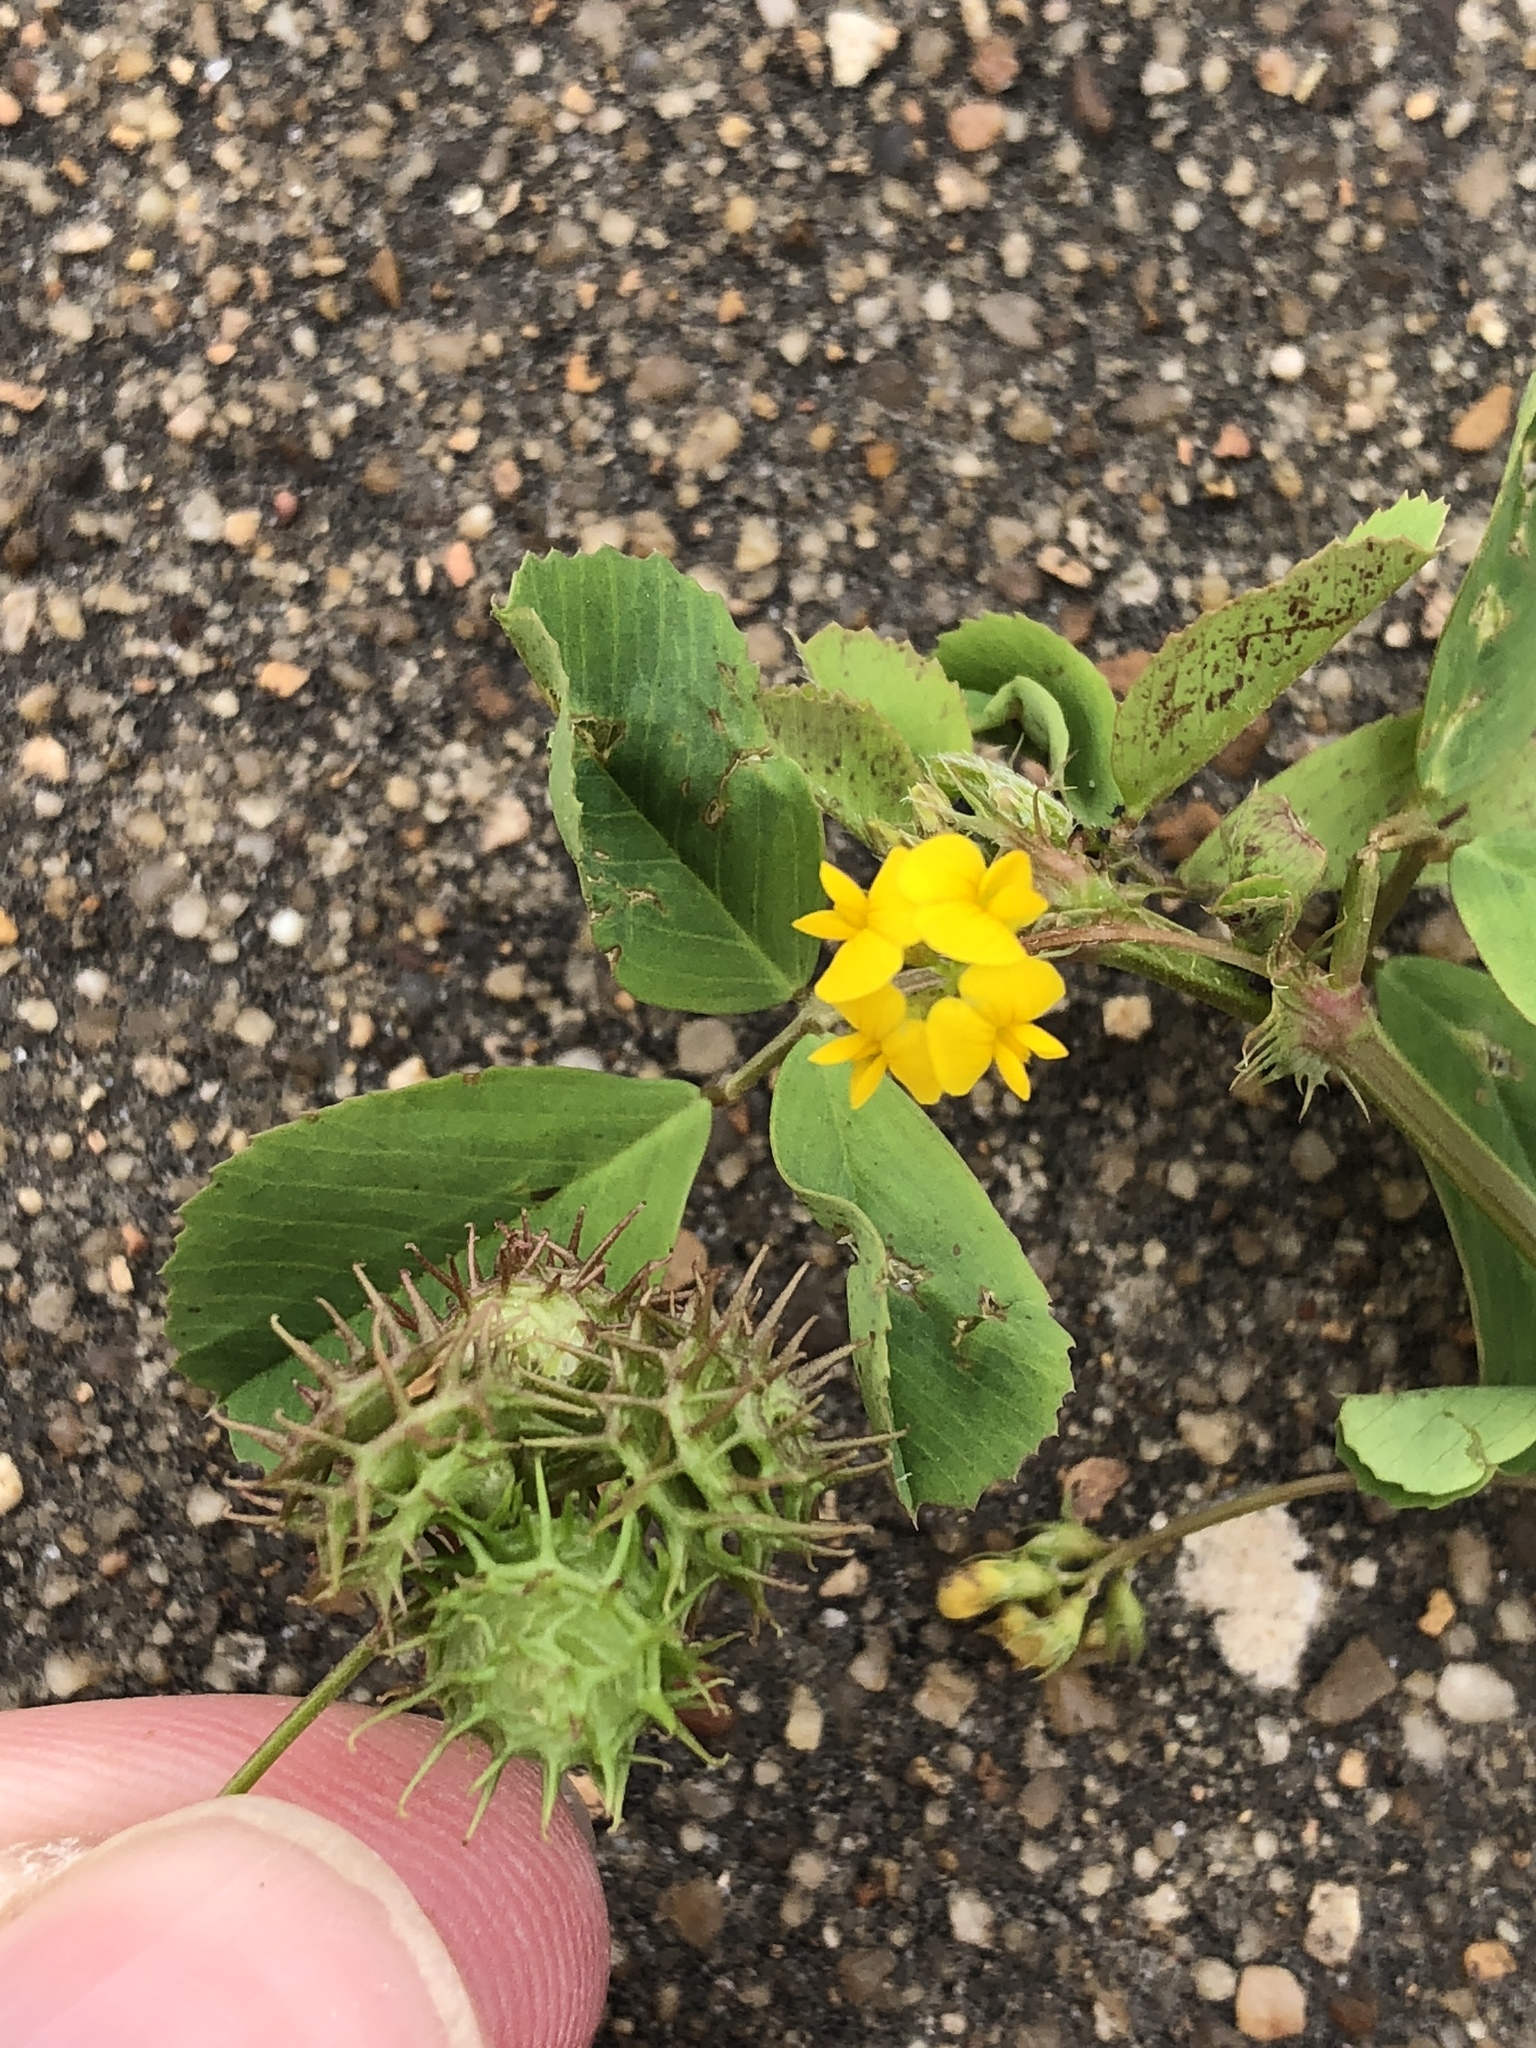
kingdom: Plantae
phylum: Tracheophyta
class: Magnoliopsida
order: Fabales
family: Fabaceae
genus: Medicago
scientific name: Medicago polymorpha
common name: Burclover
